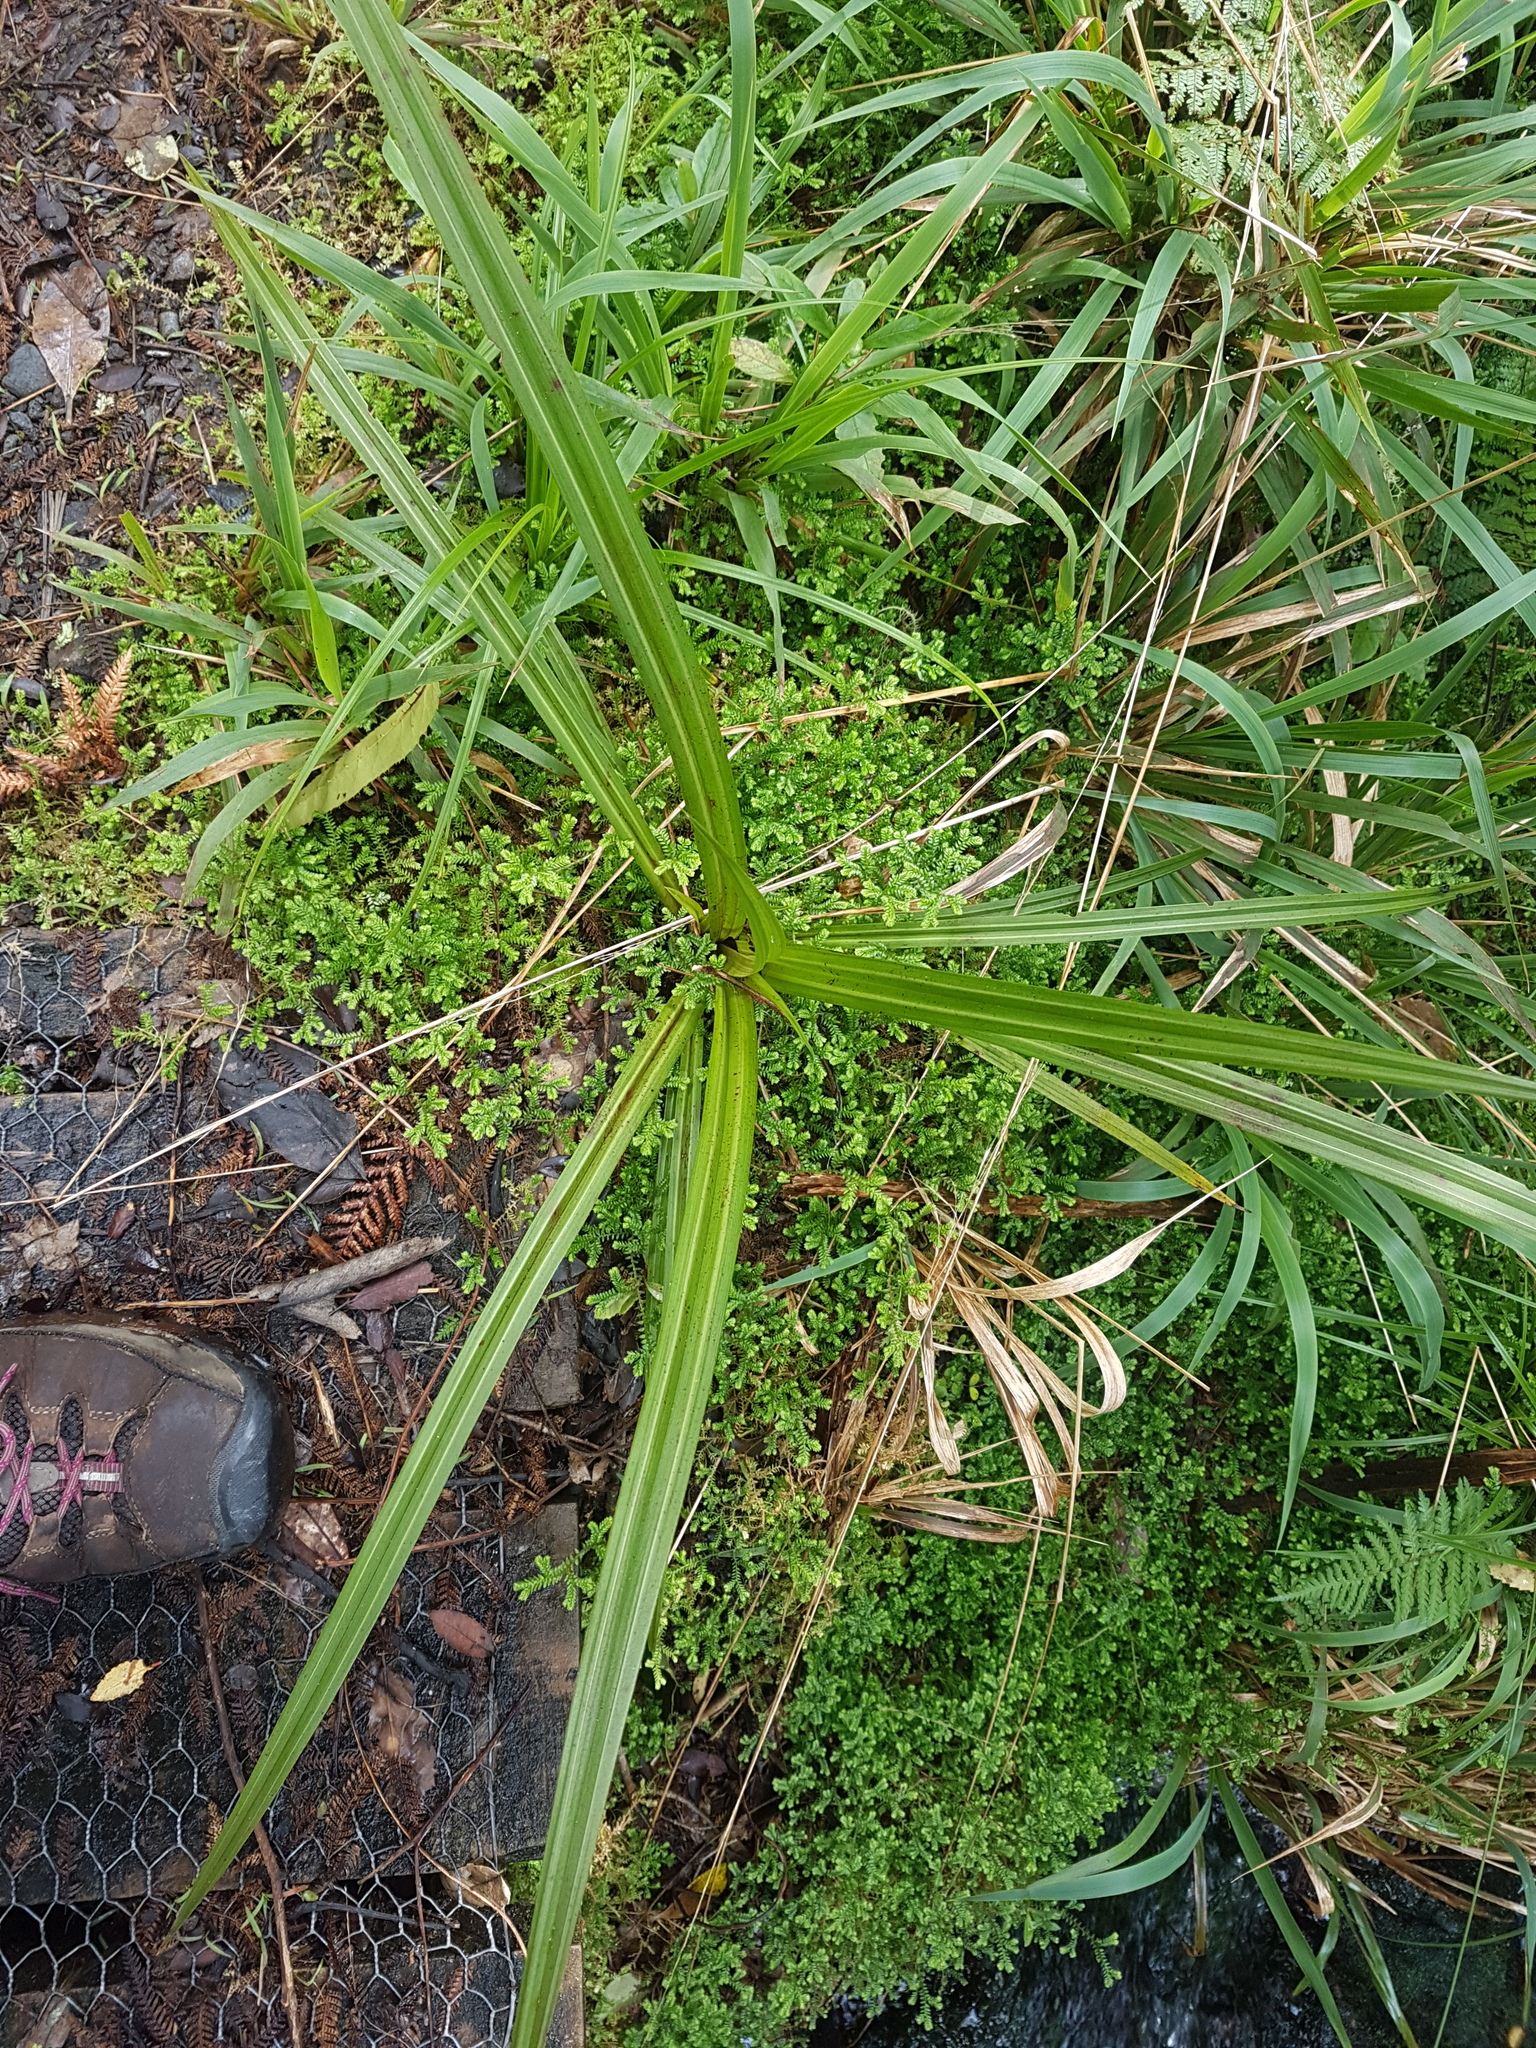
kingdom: Plantae
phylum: Tracheophyta
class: Liliopsida
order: Asparagales
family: Asteliaceae
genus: Astelia
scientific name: Astelia fragrans
